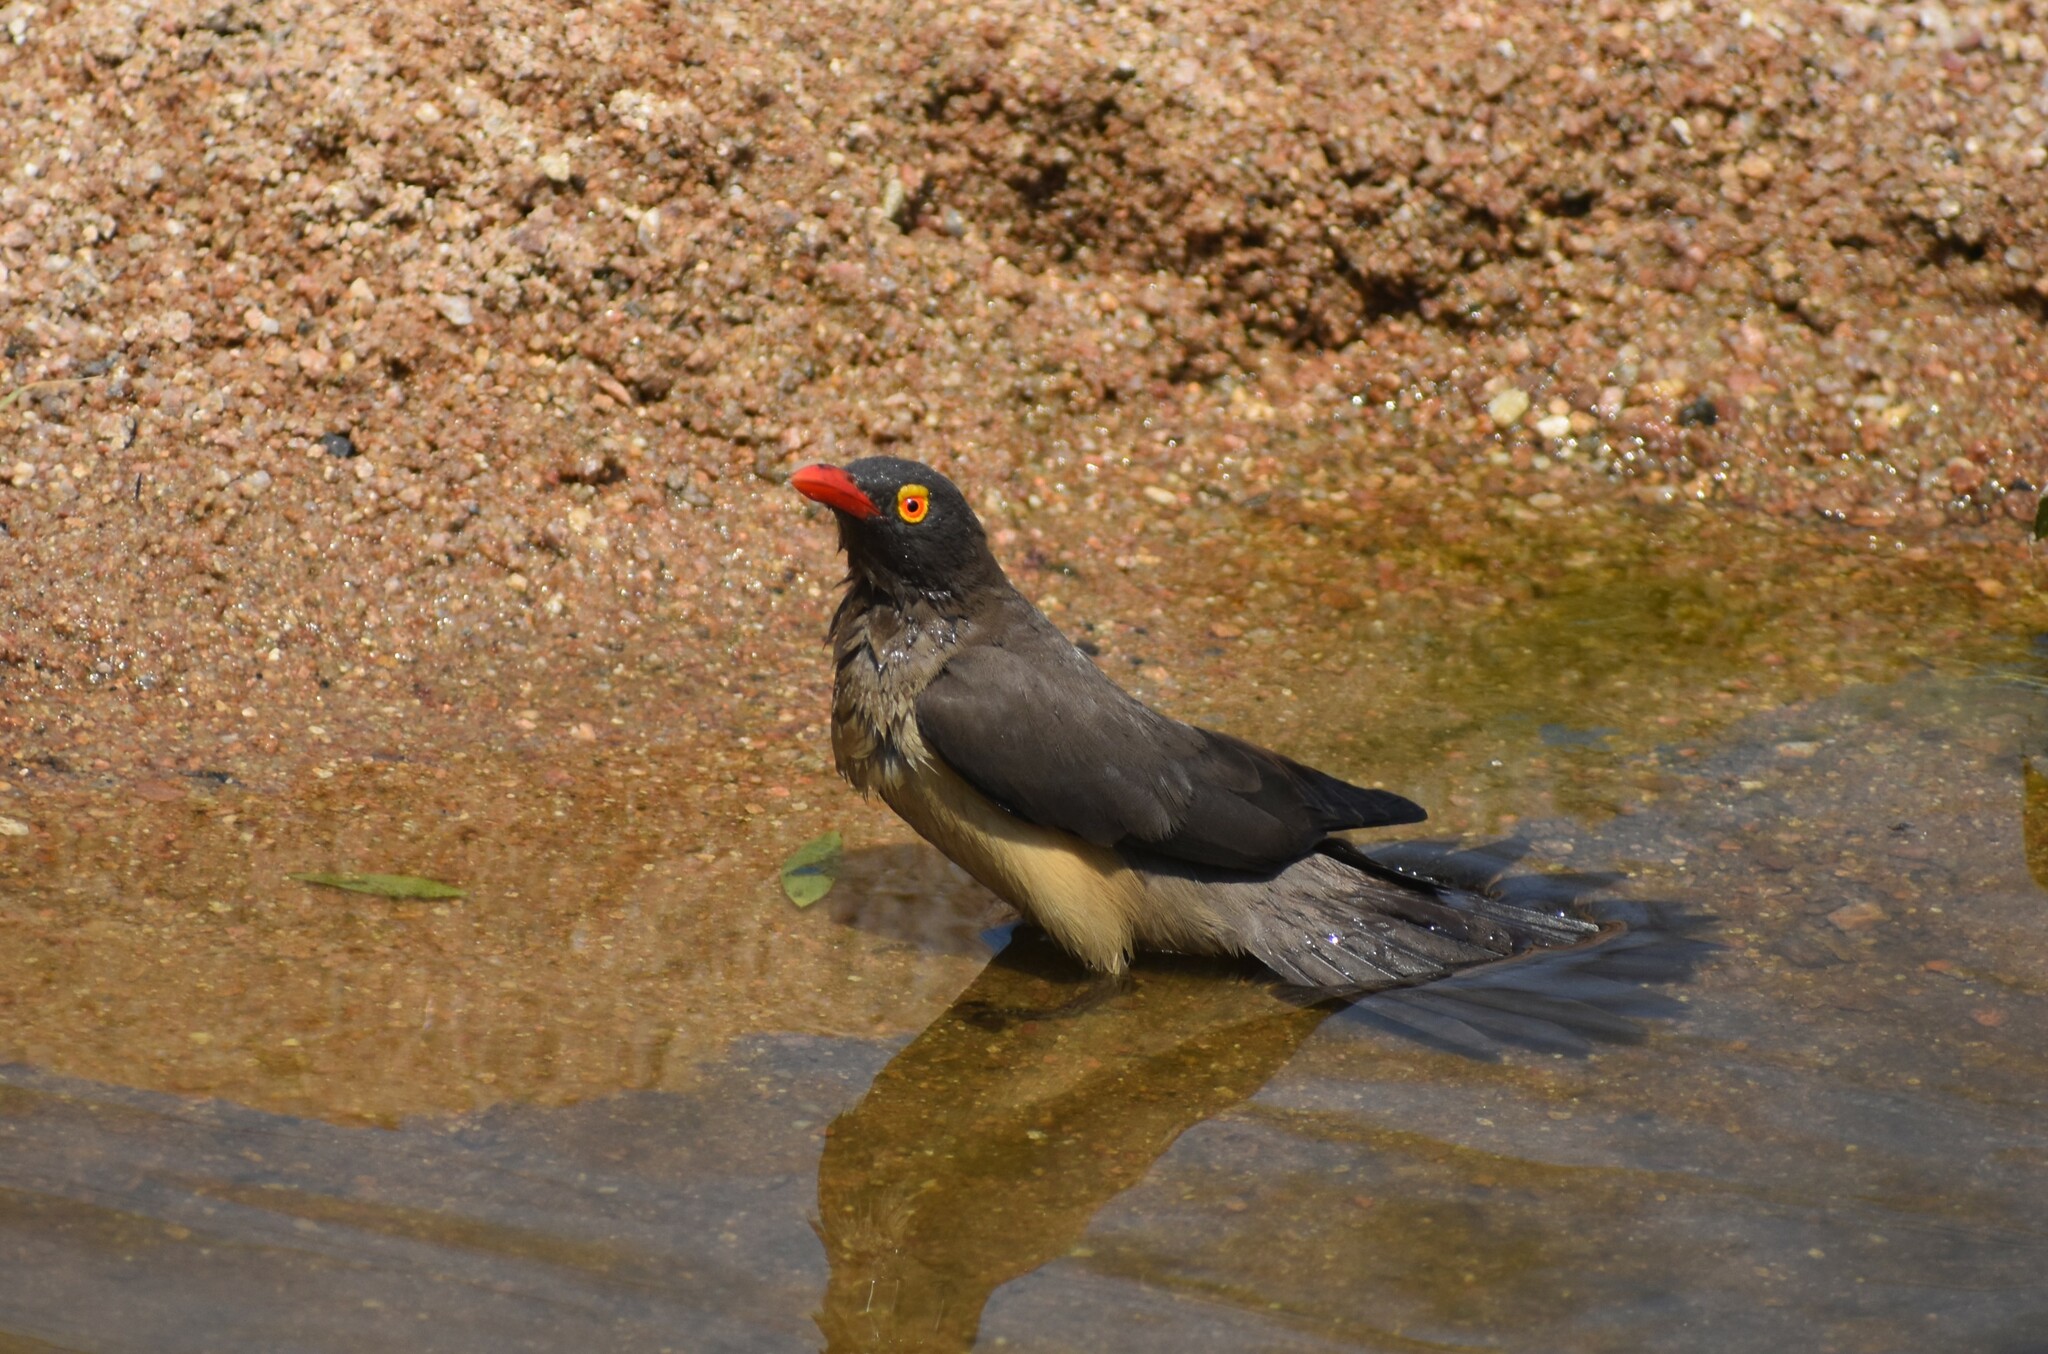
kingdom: Animalia
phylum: Chordata
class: Aves
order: Passeriformes
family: Buphagidae
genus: Buphagus
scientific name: Buphagus erythrorhynchus
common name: Red-billed oxpecker
